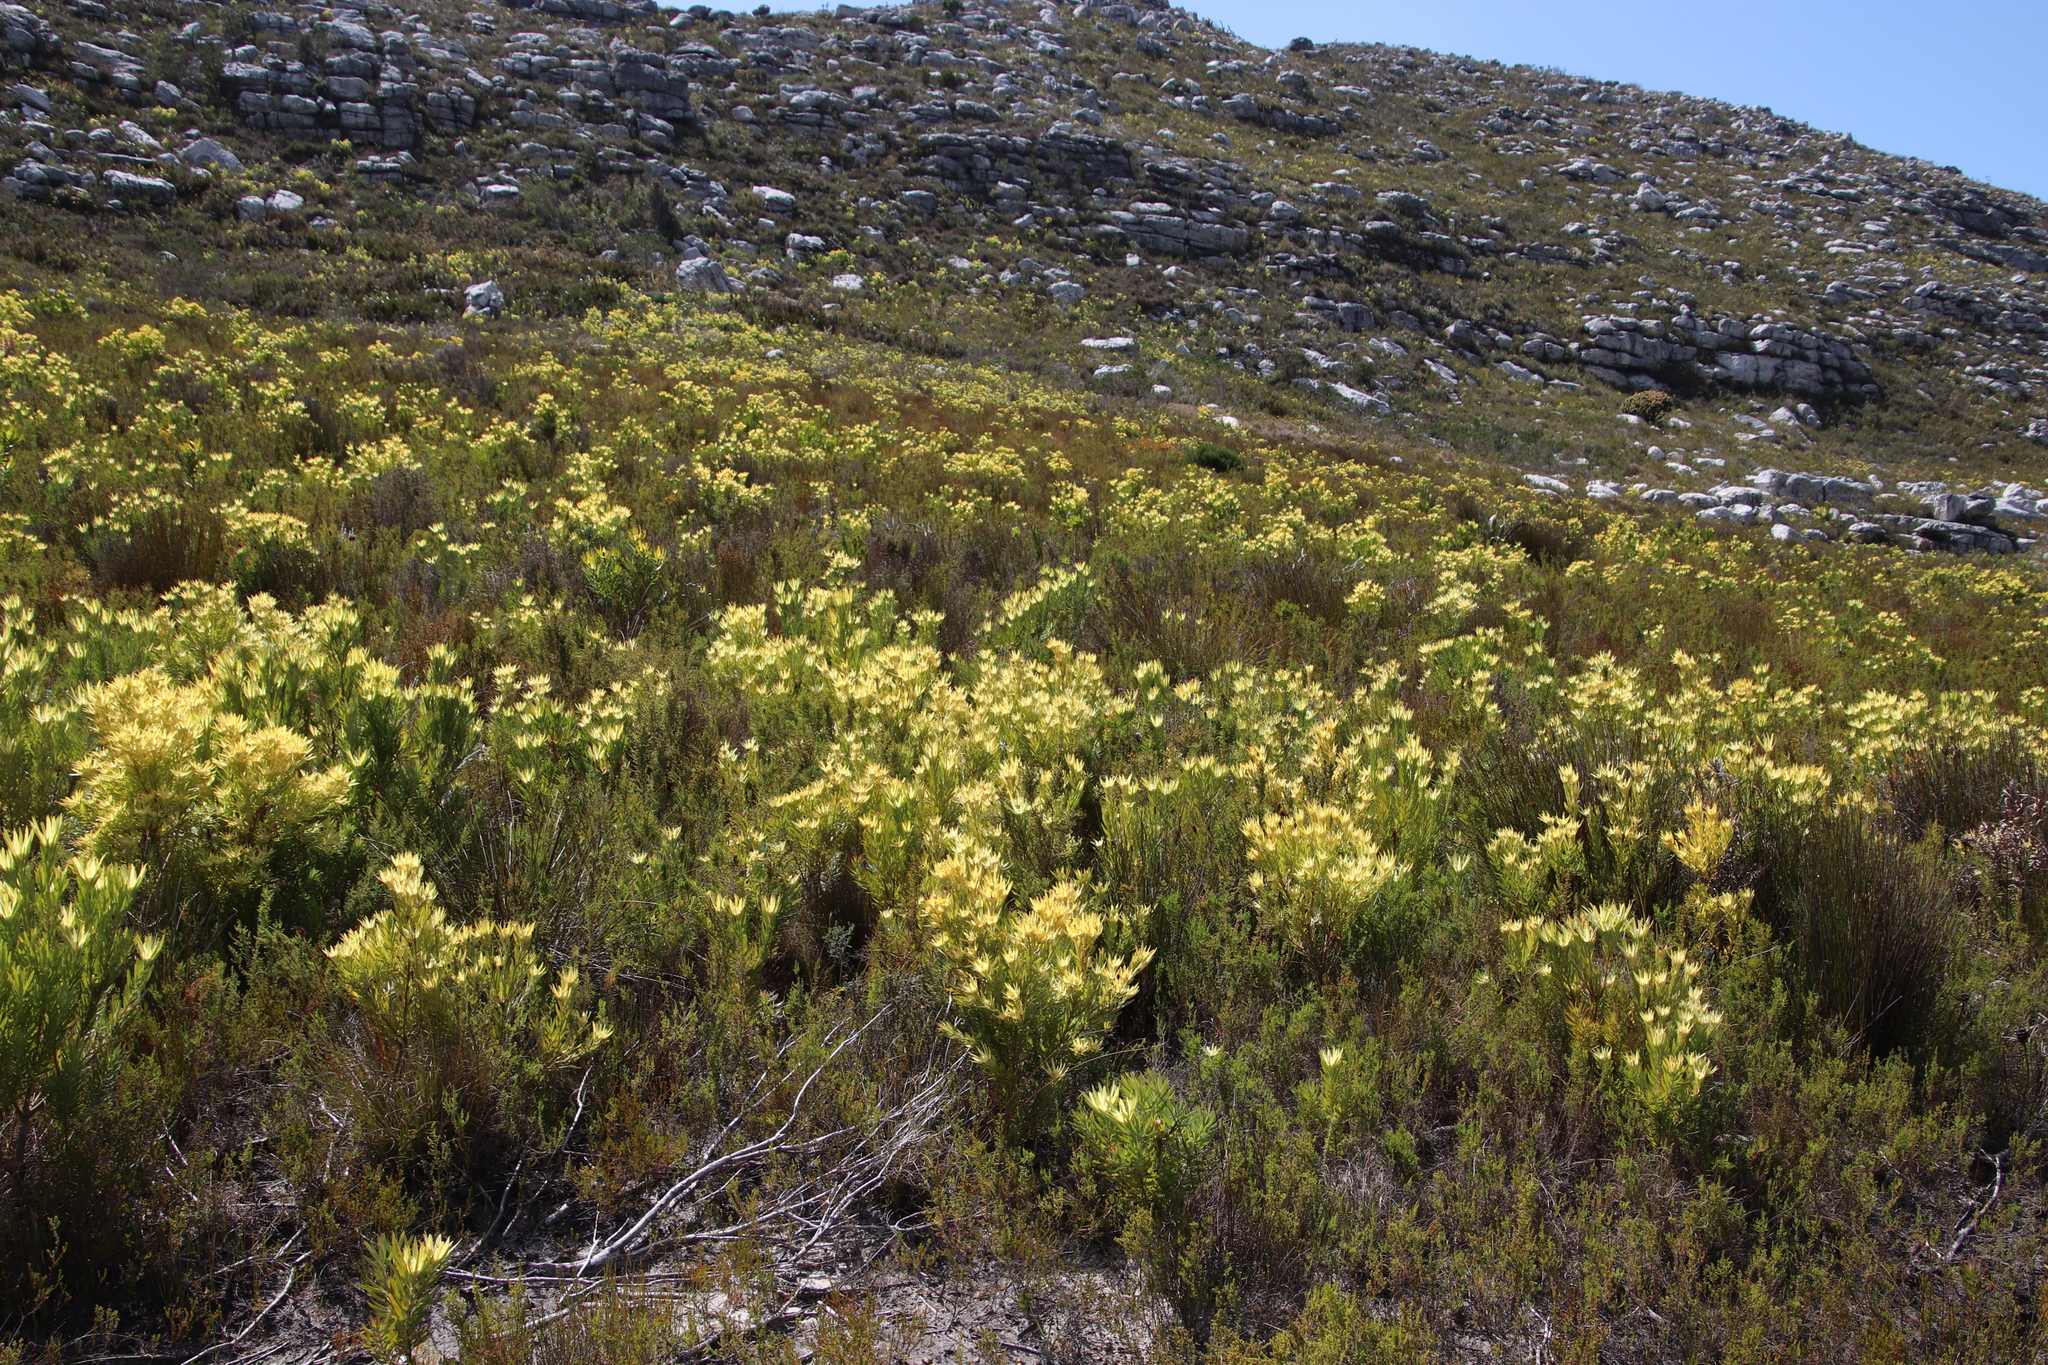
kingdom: Plantae
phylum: Tracheophyta
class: Magnoliopsida
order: Proteales
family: Proteaceae
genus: Leucadendron
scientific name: Leucadendron xanthoconus
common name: Sickle-leaf conebush
